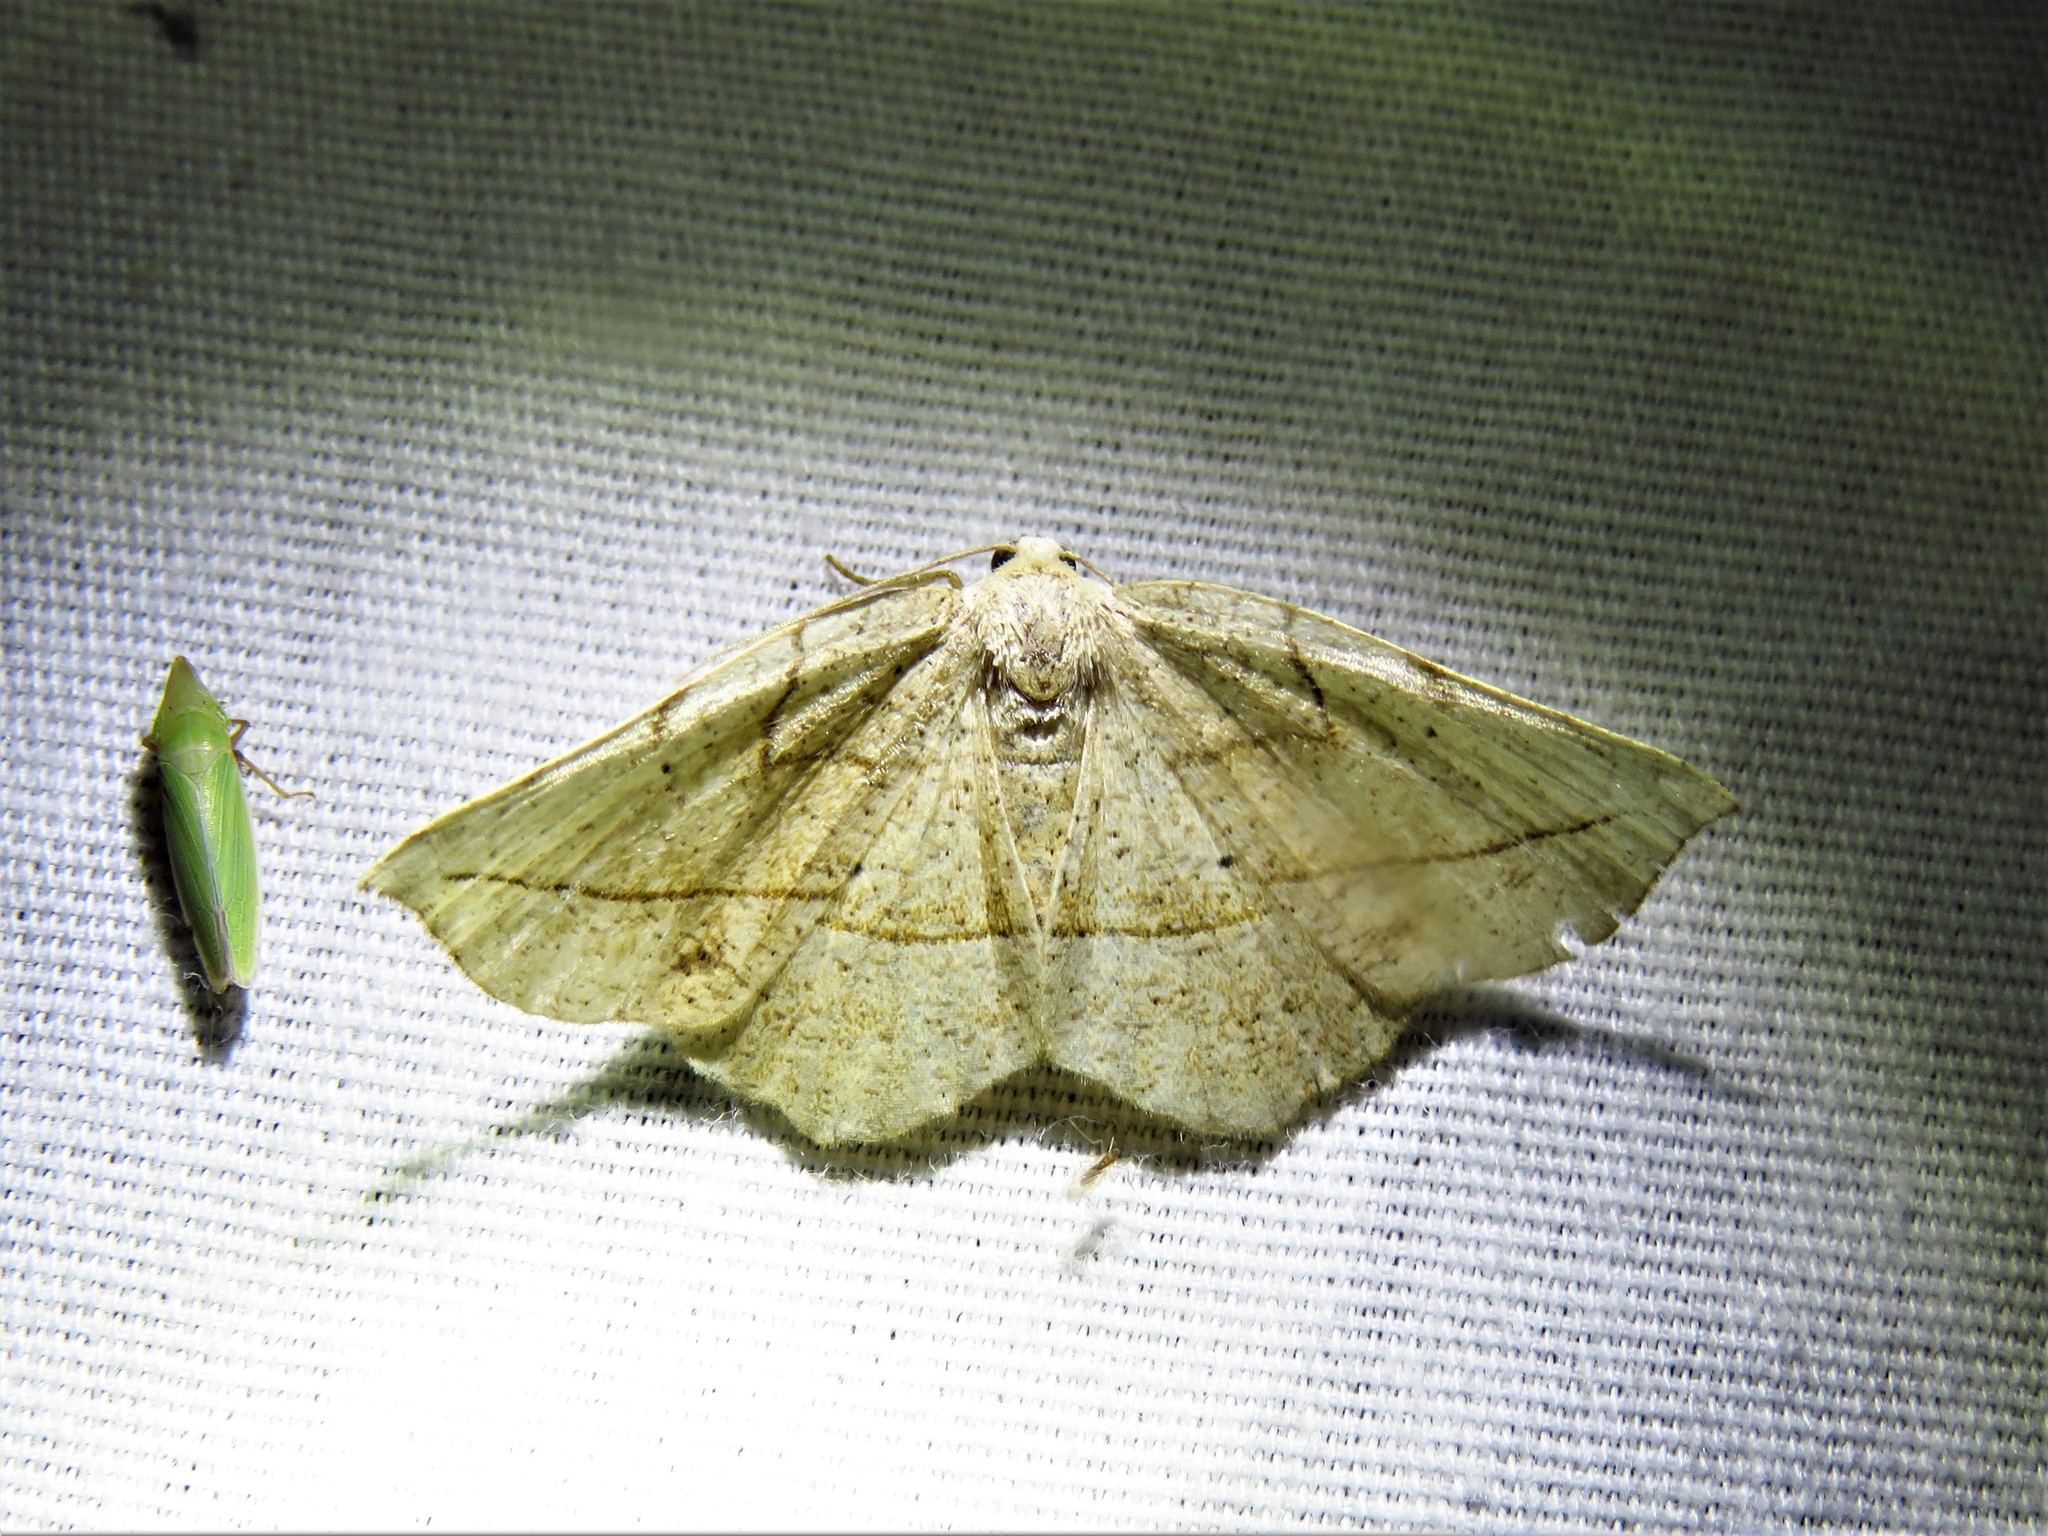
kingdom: Animalia
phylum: Arthropoda
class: Insecta
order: Lepidoptera
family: Geometridae
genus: Eusarca
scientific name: Eusarca packardaria
